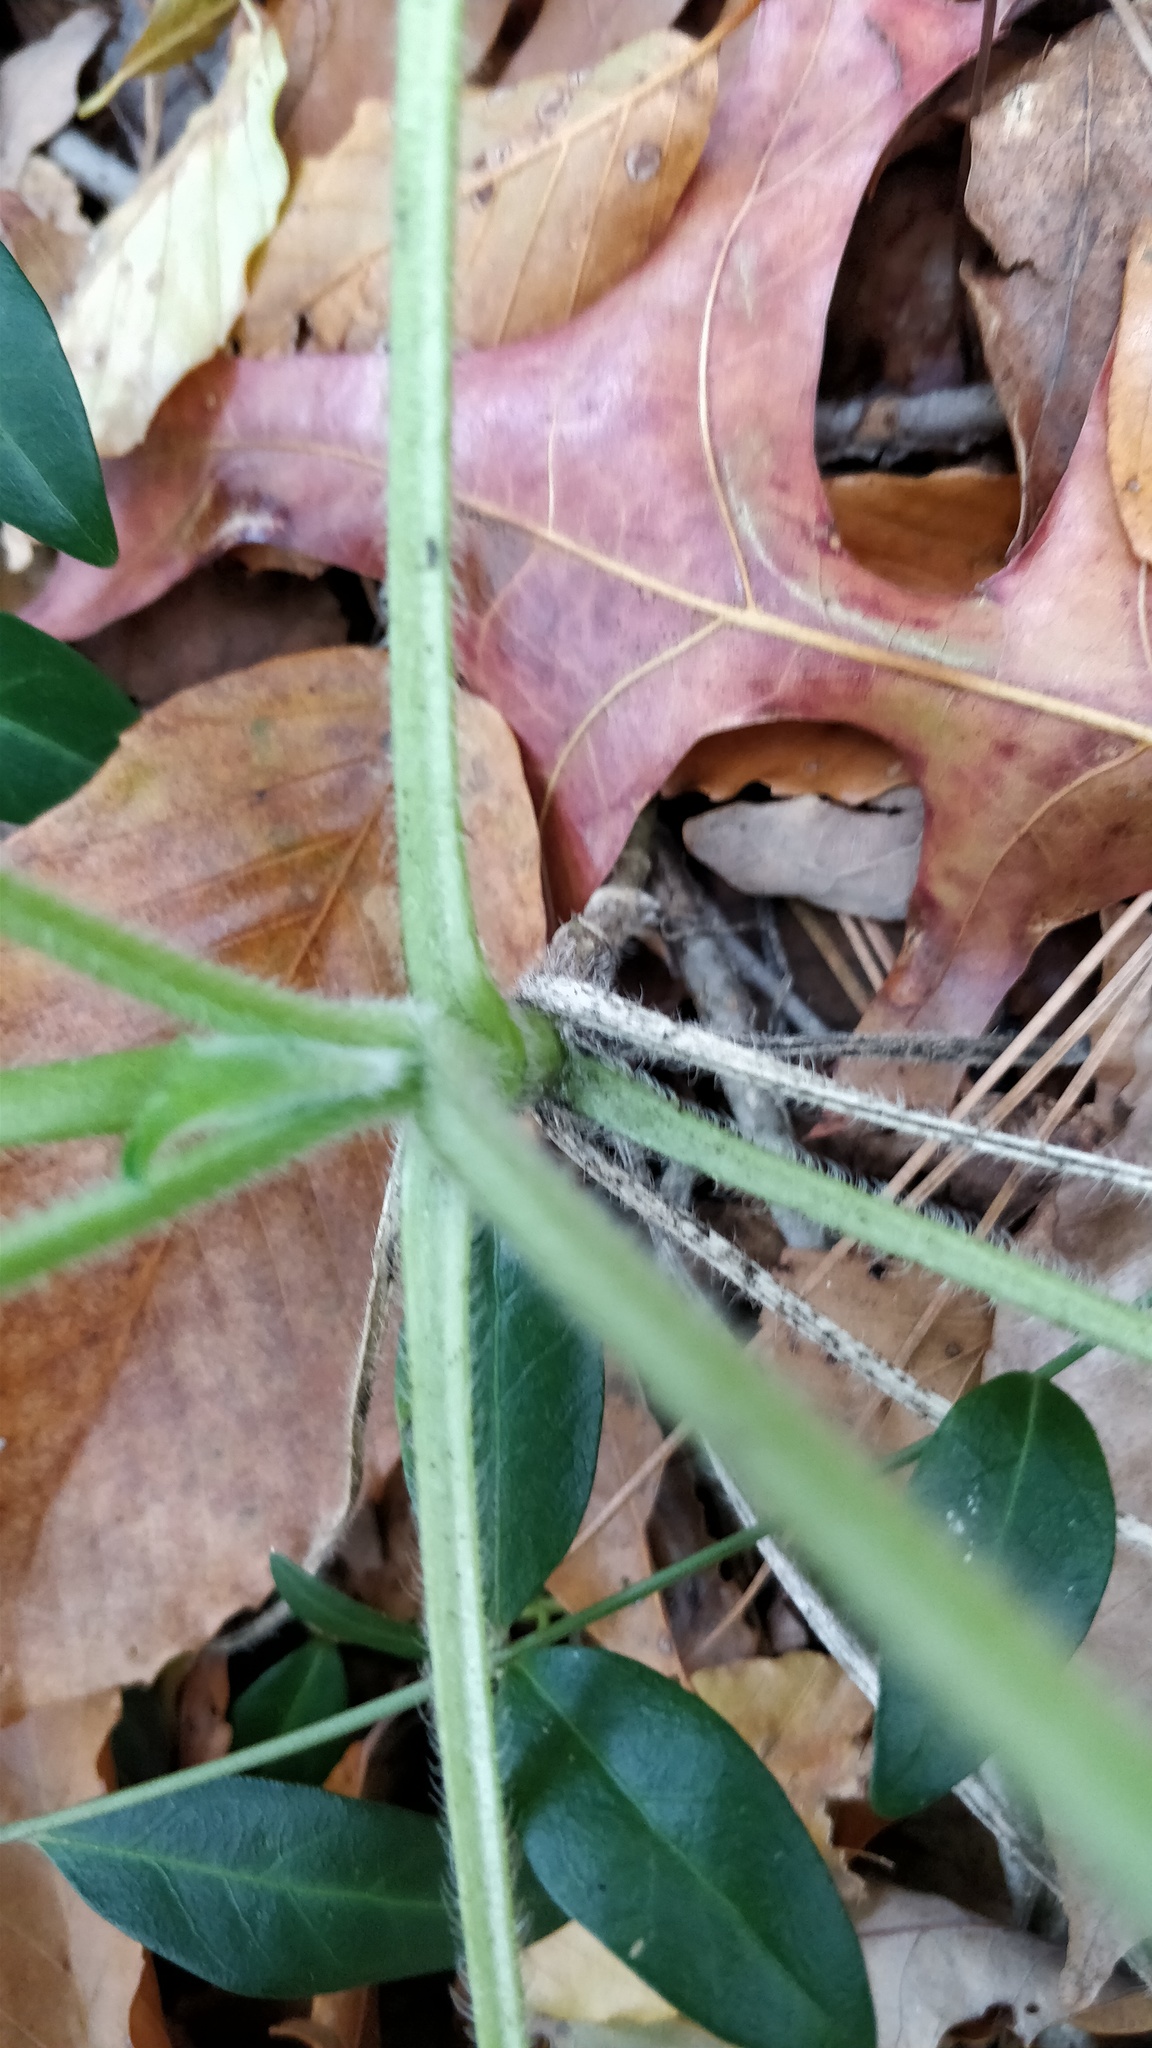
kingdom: Plantae
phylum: Tracheophyta
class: Magnoliopsida
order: Brassicales
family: Brassicaceae
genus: Lunaria
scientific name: Lunaria annua
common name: Honesty
